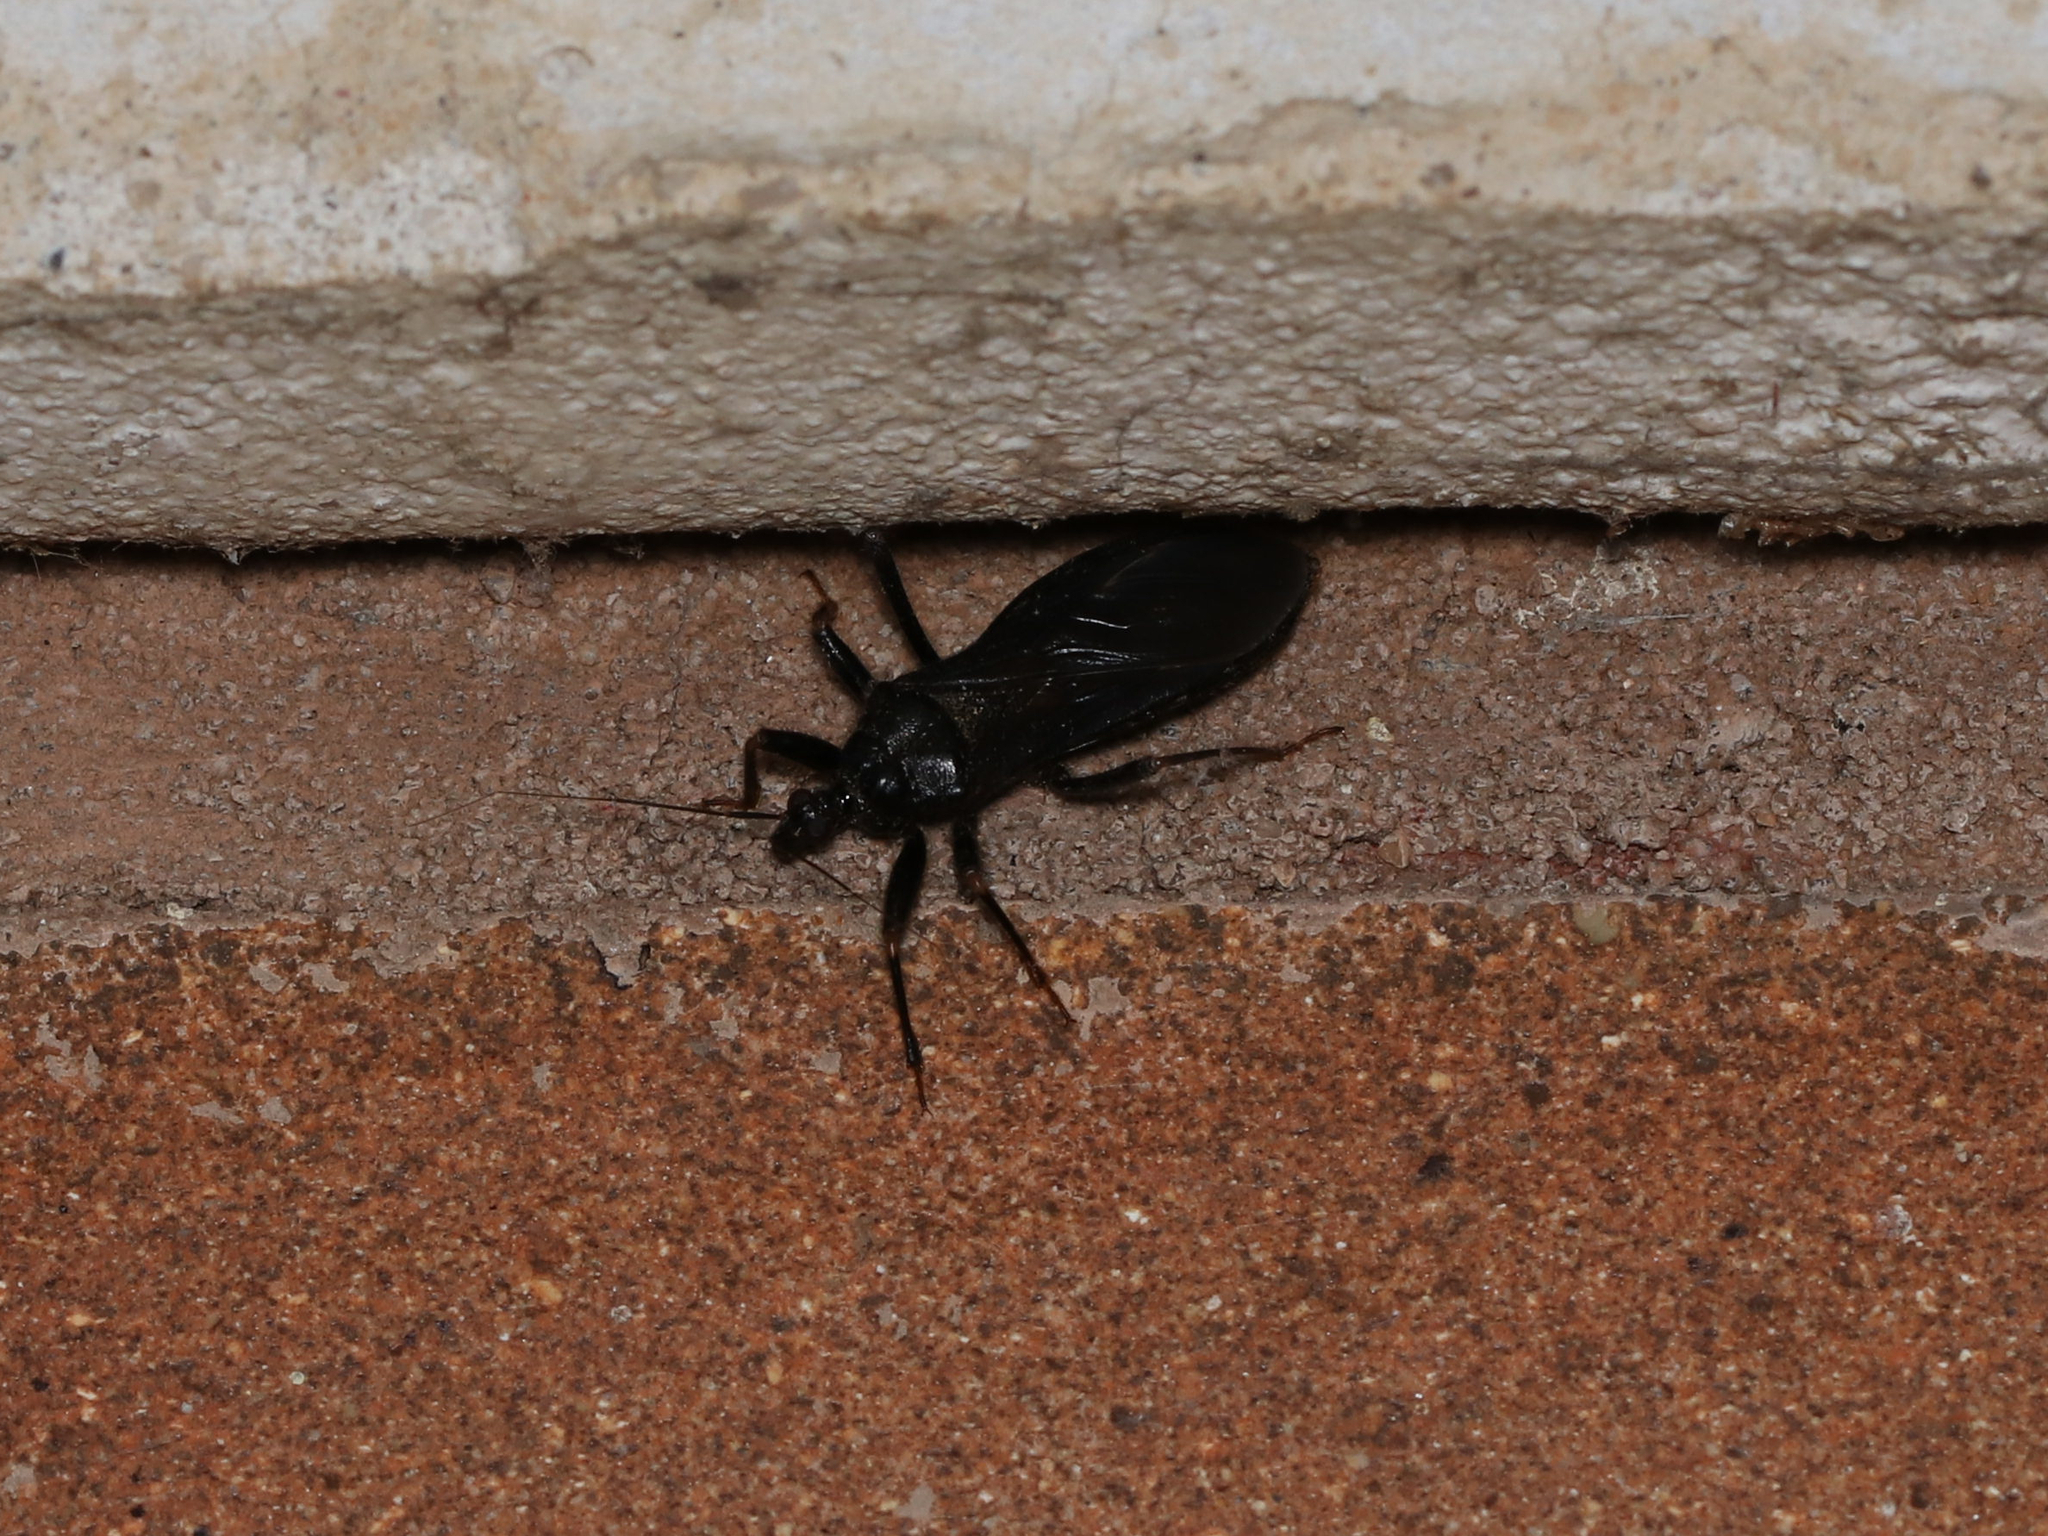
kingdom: Animalia
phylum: Arthropoda
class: Insecta
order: Hemiptera
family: Reduviidae
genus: Reduvius
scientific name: Reduvius personatus
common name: Masked hunter
